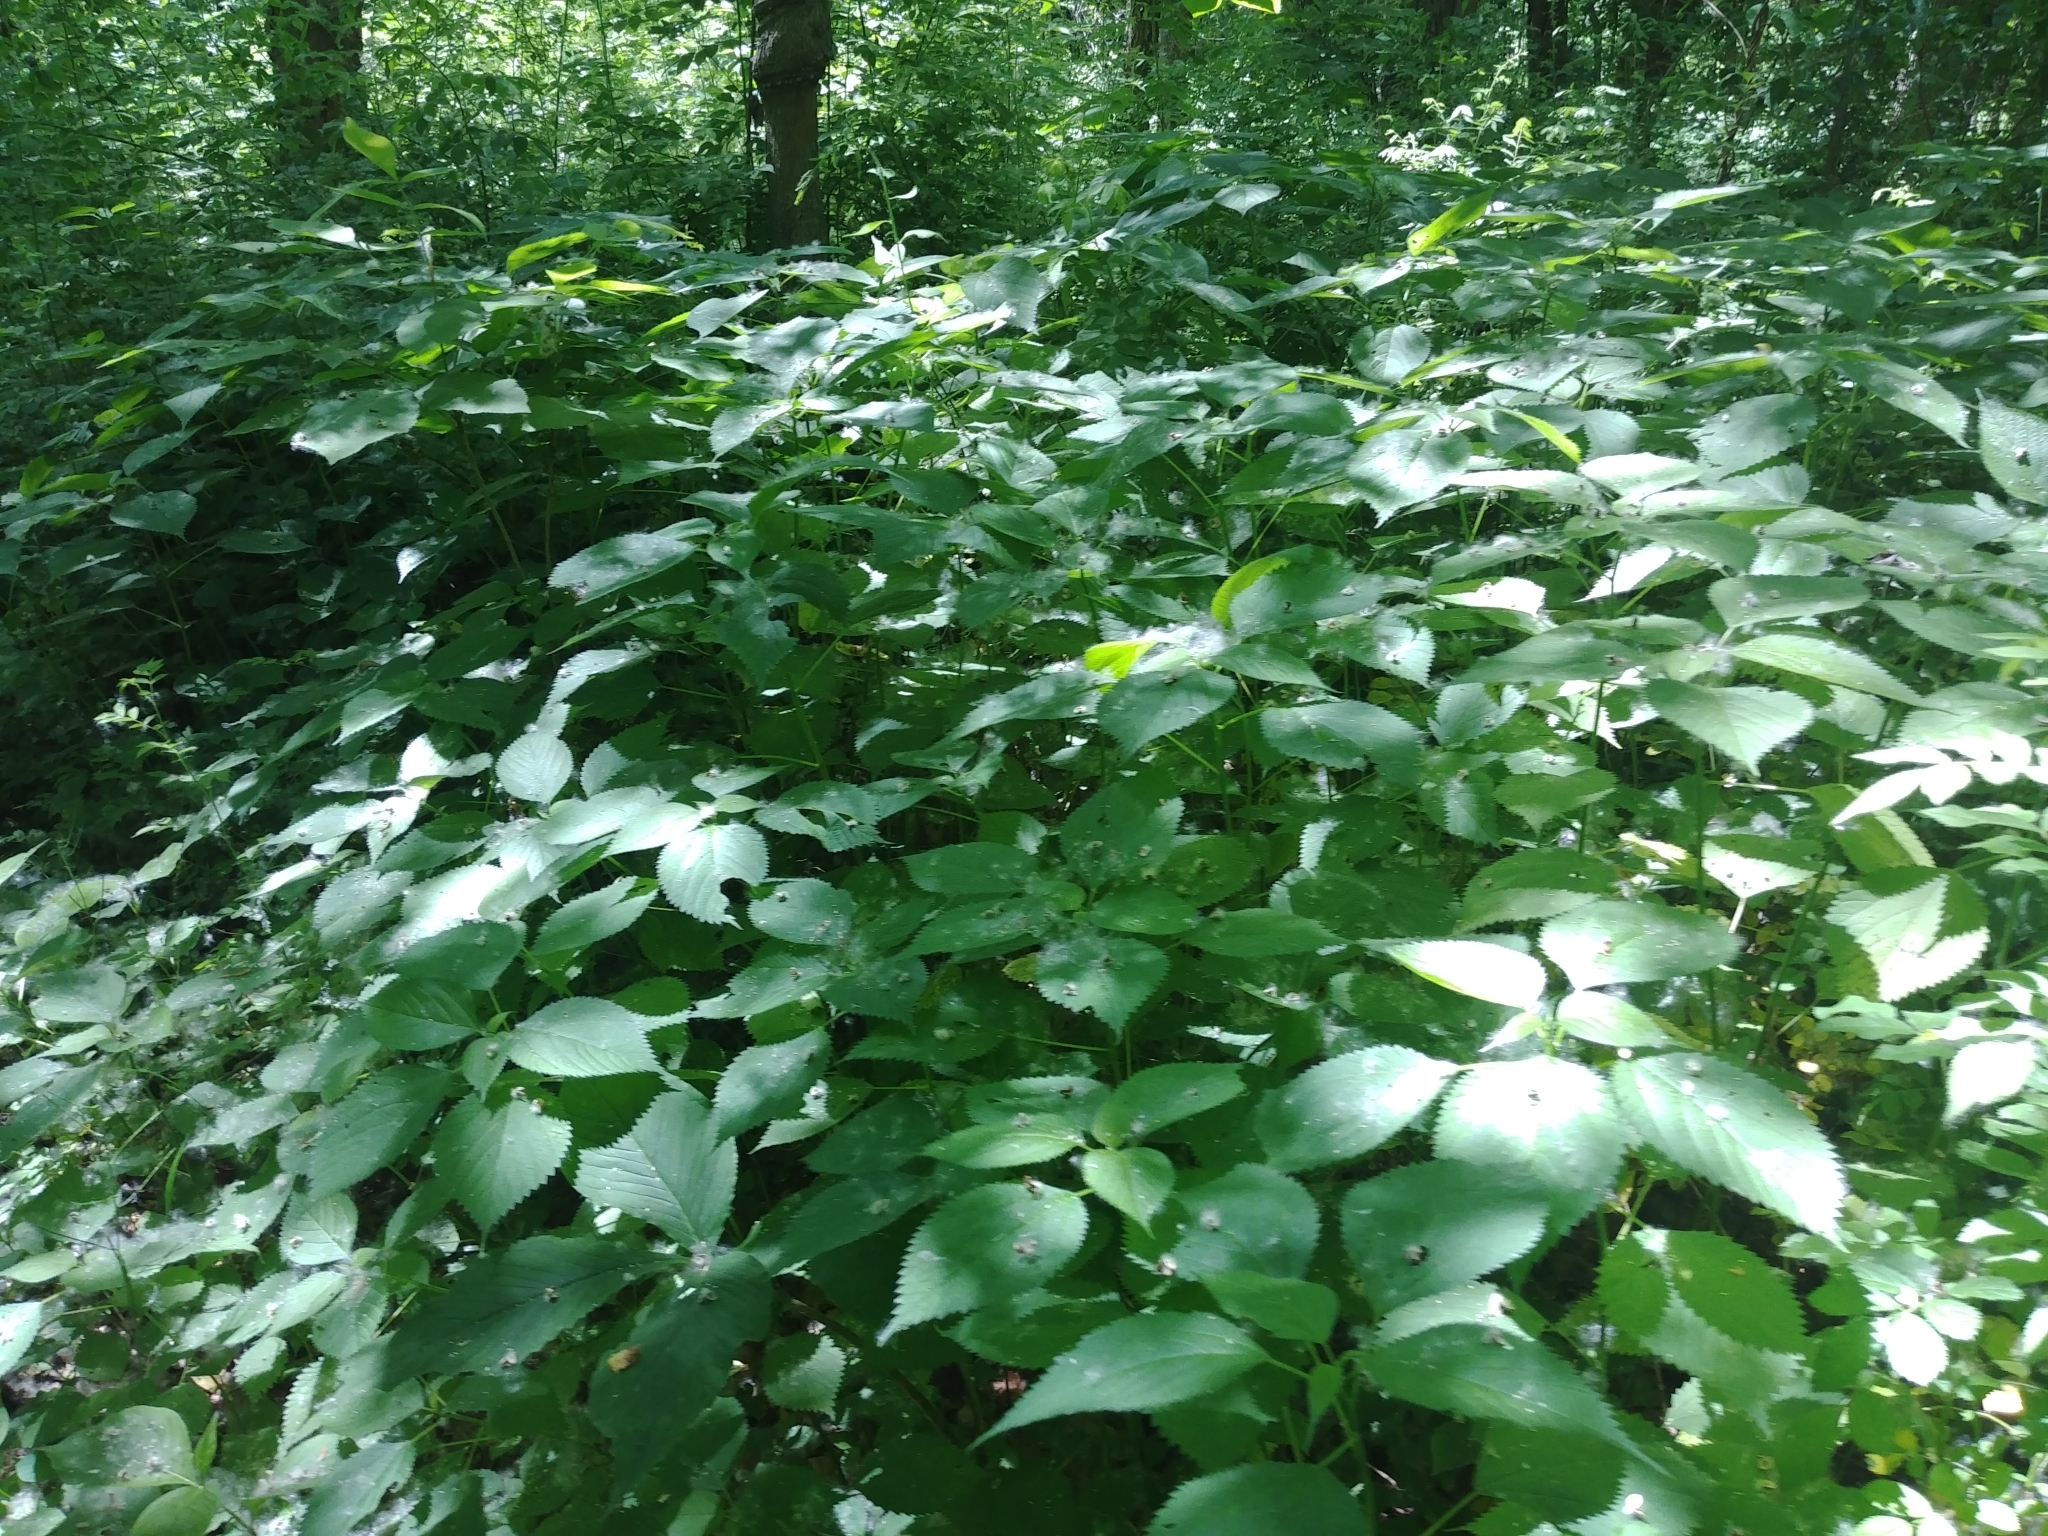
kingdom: Plantae
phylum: Tracheophyta
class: Magnoliopsida
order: Rosales
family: Urticaceae
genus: Laportea
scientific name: Laportea canadensis
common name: Canada nettle
